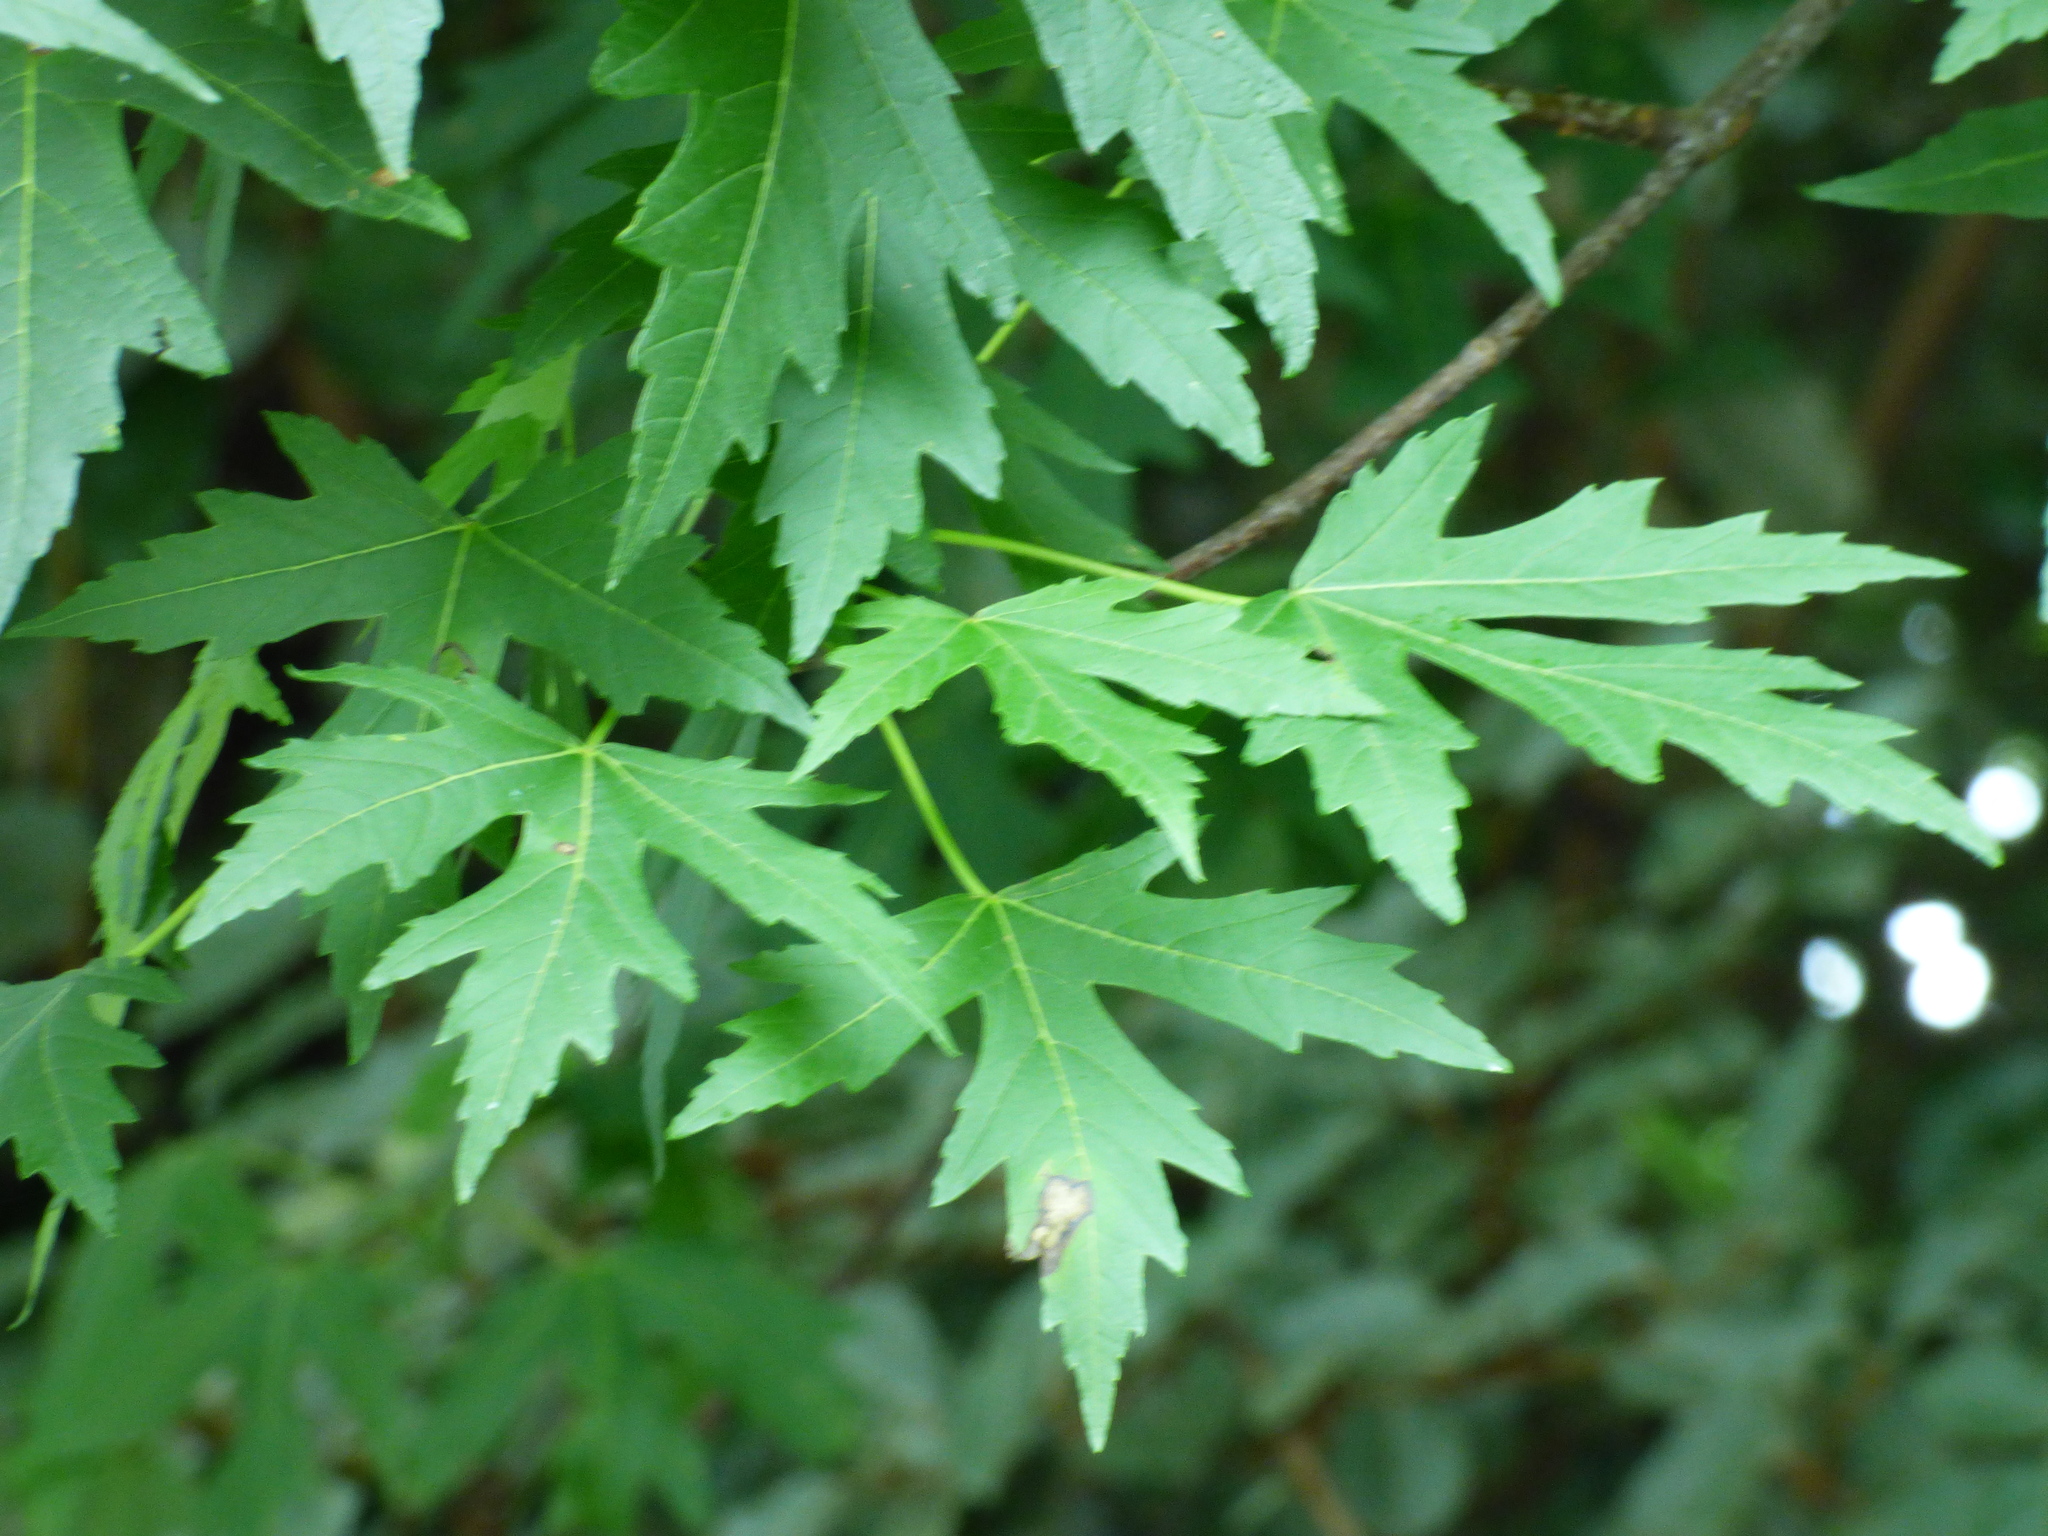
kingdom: Plantae
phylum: Tracheophyta
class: Magnoliopsida
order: Sapindales
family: Sapindaceae
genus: Acer
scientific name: Acer saccharinum
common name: Silver maple
